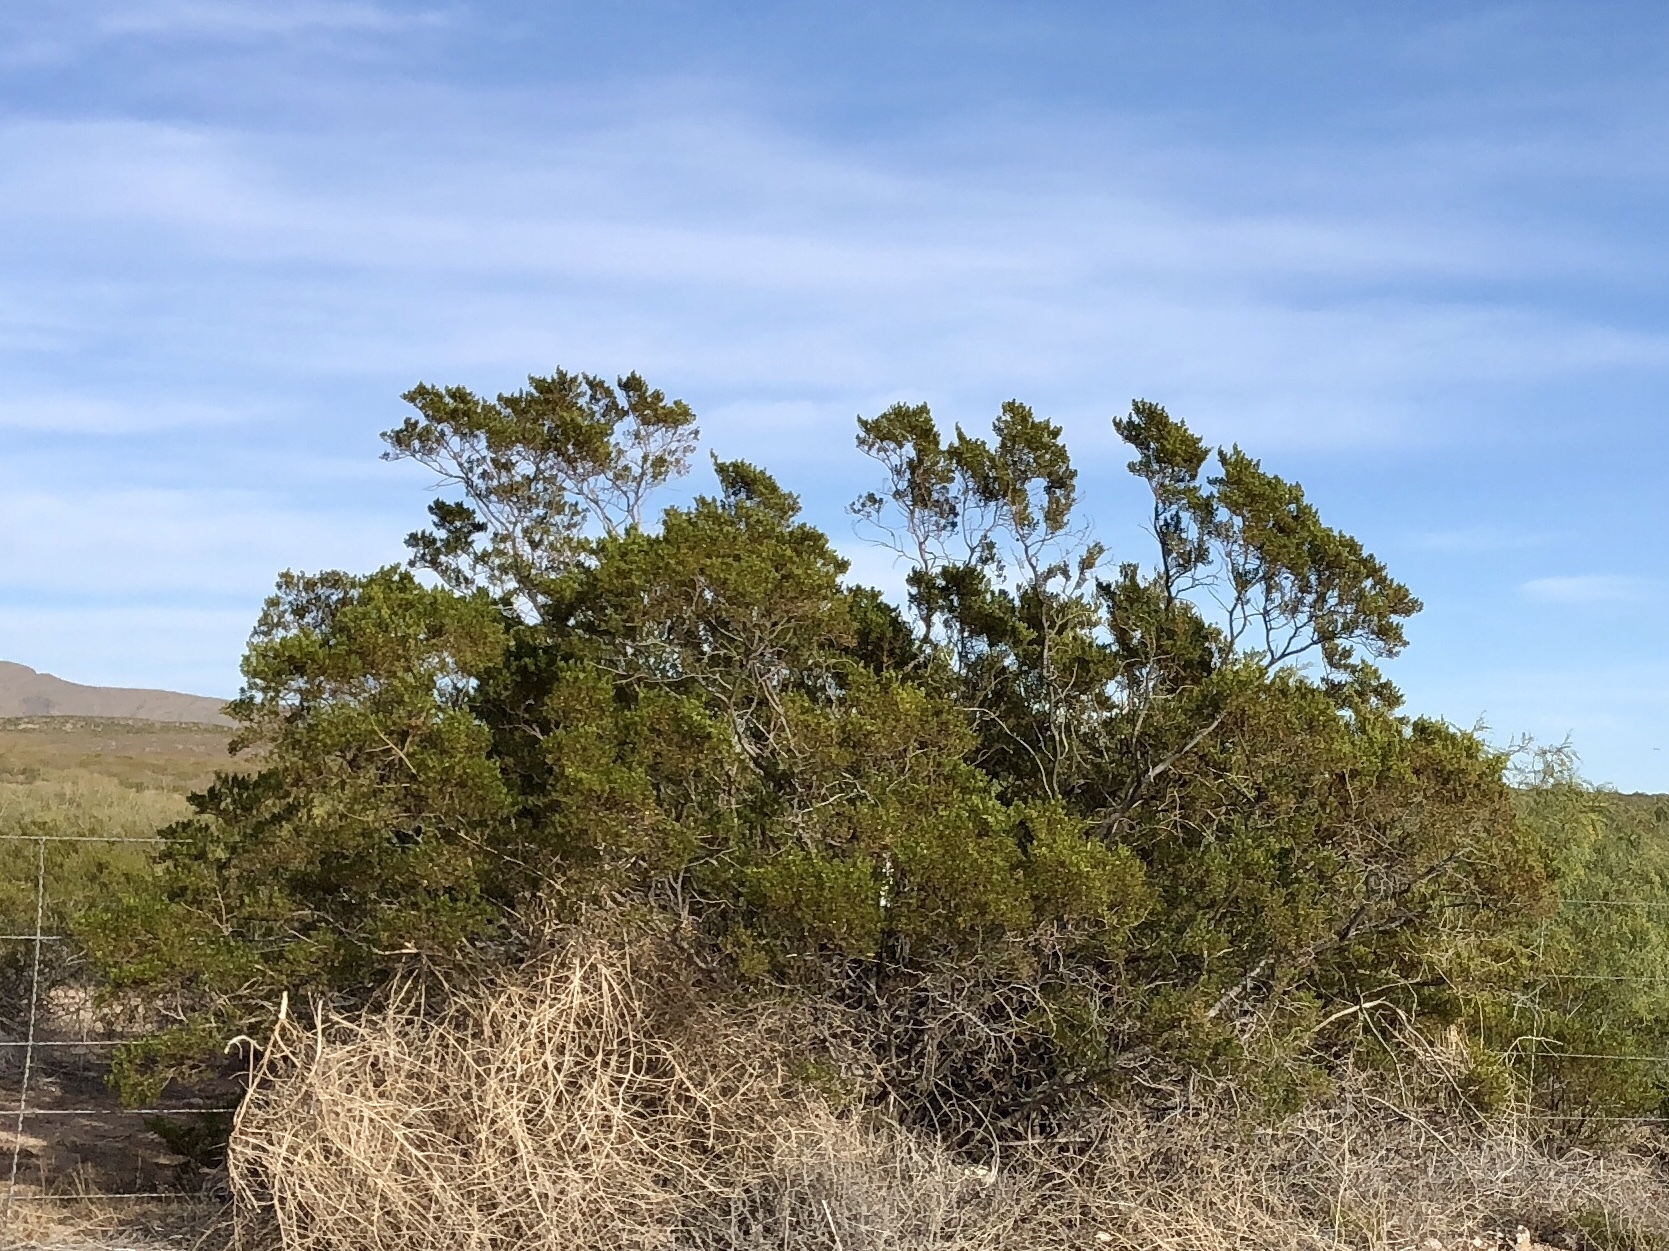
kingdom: Plantae
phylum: Tracheophyta
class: Magnoliopsida
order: Zygophyllales
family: Zygophyllaceae
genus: Larrea
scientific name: Larrea tridentata
